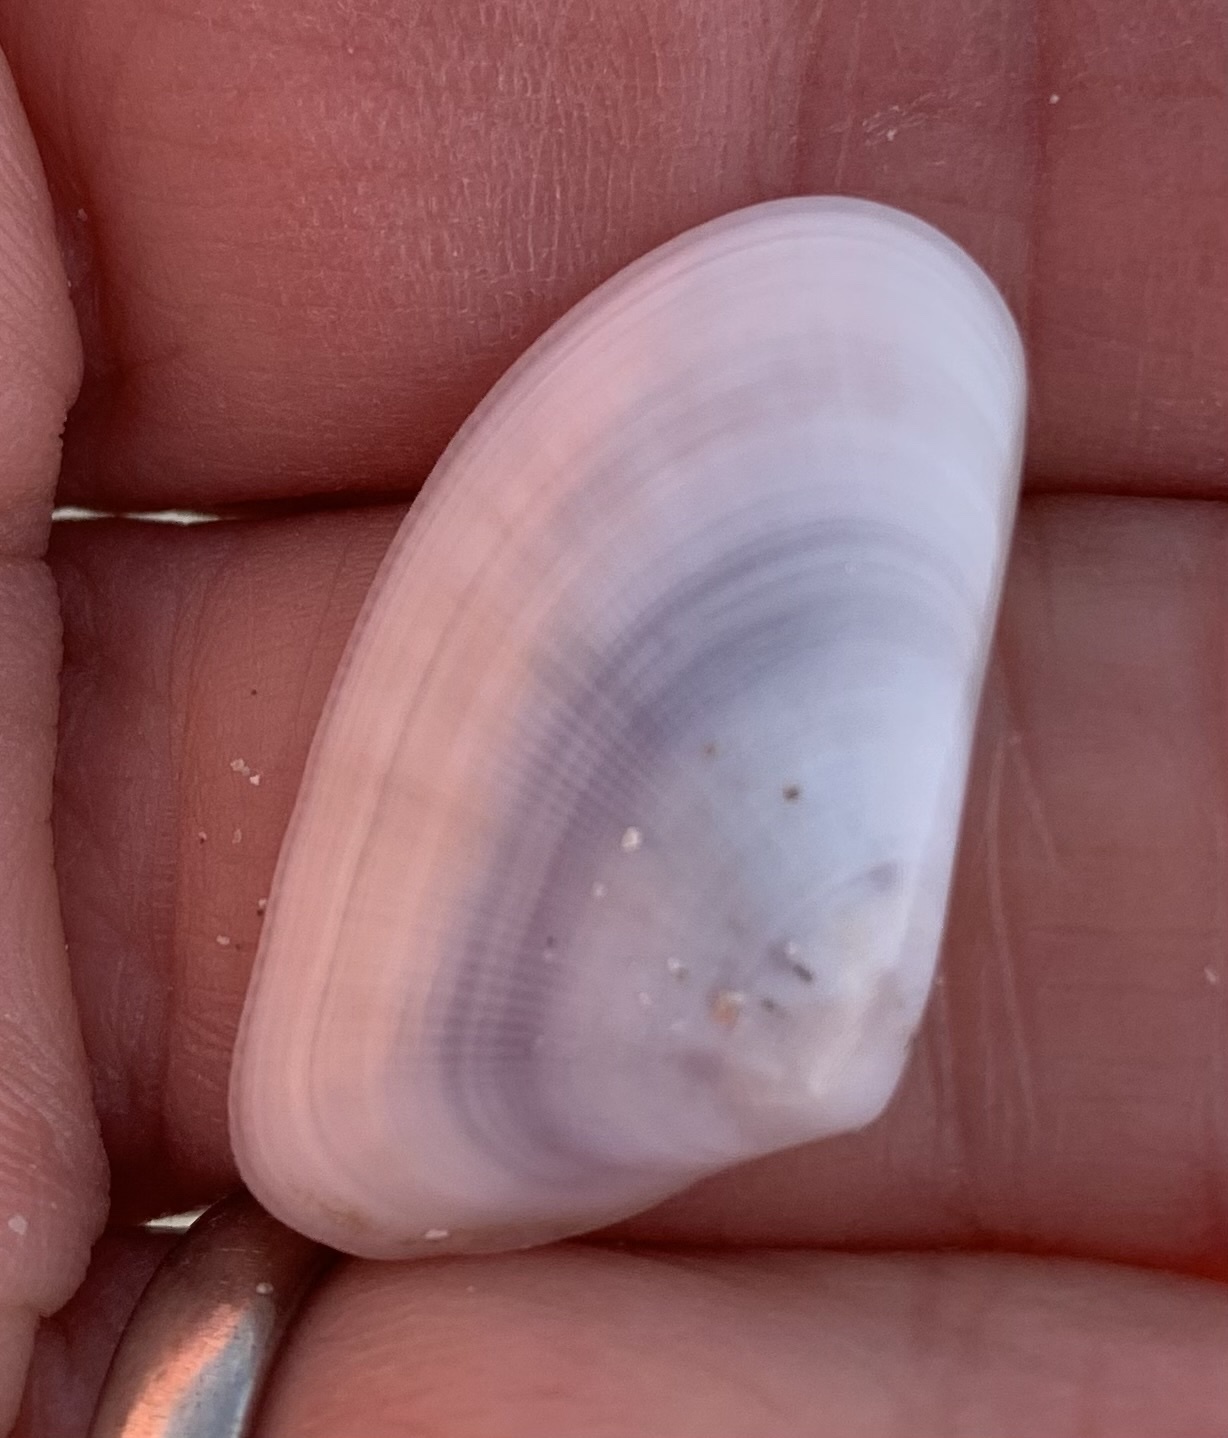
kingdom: Animalia
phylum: Mollusca
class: Bivalvia
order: Cardiida
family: Donacidae
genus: Donax
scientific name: Donax trunculus
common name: Truncate donax
